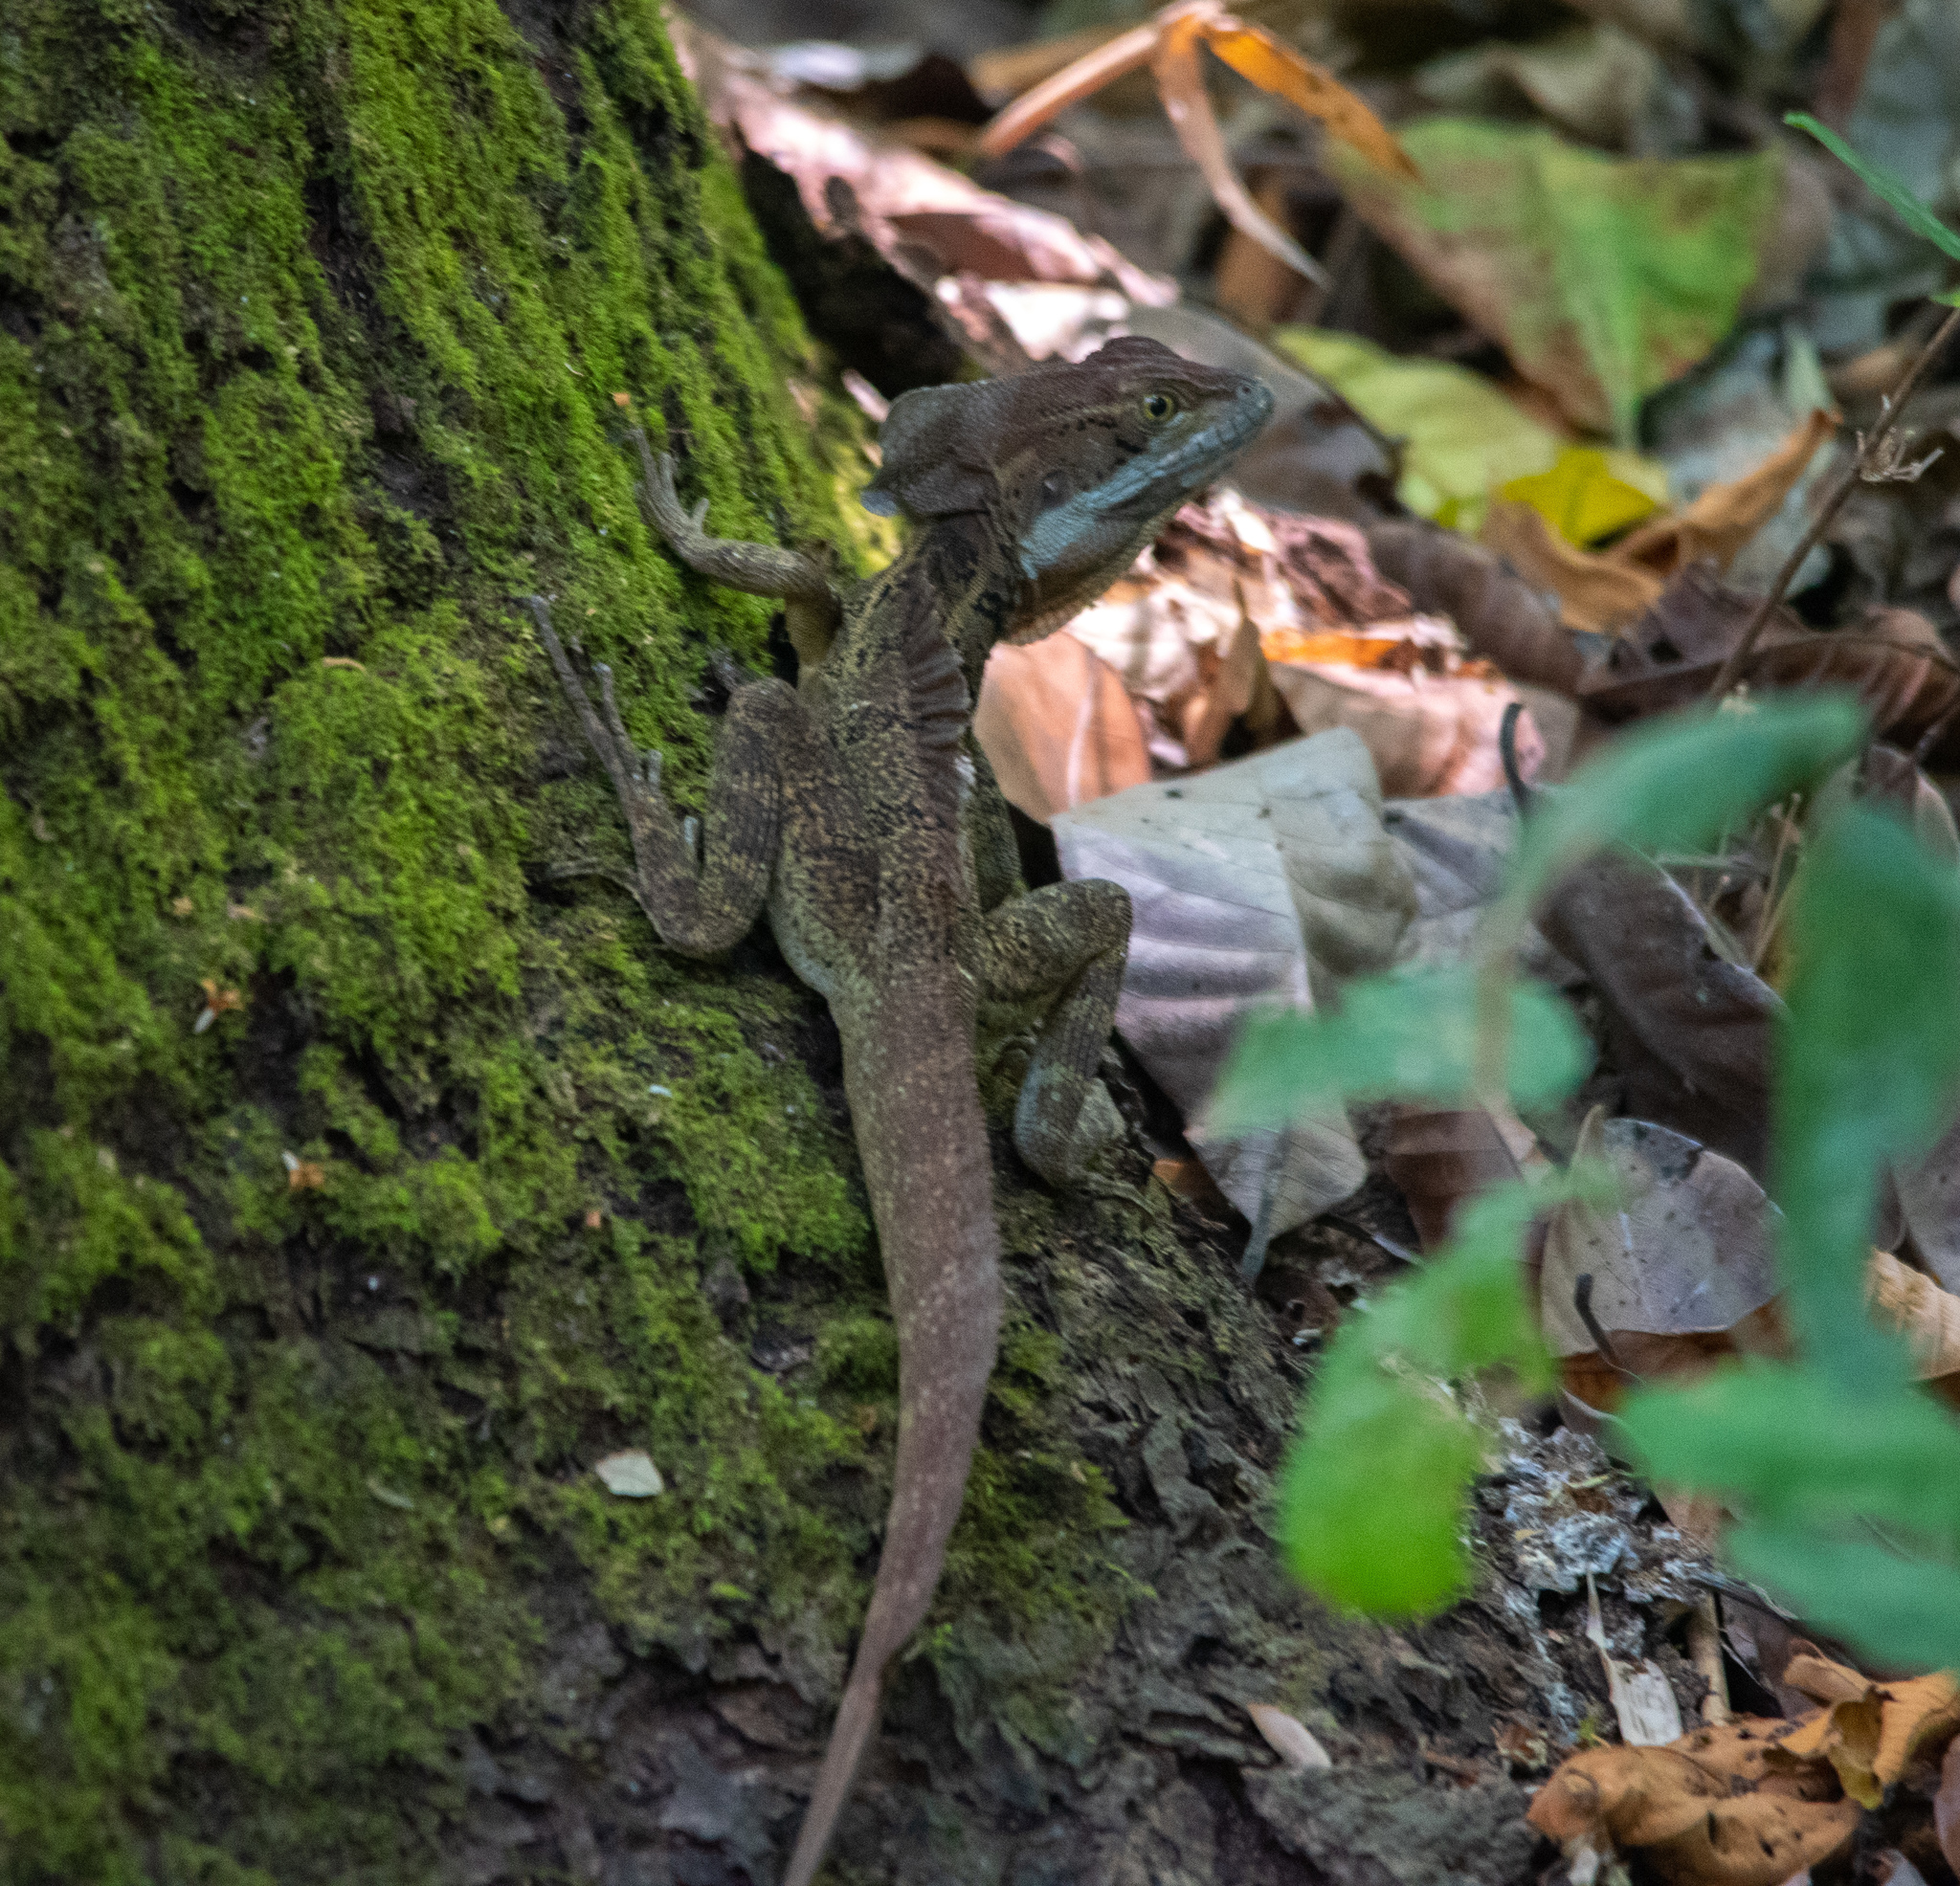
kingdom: Animalia
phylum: Chordata
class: Squamata
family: Corytophanidae
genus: Basiliscus
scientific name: Basiliscus basiliscus
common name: Common basilisk
